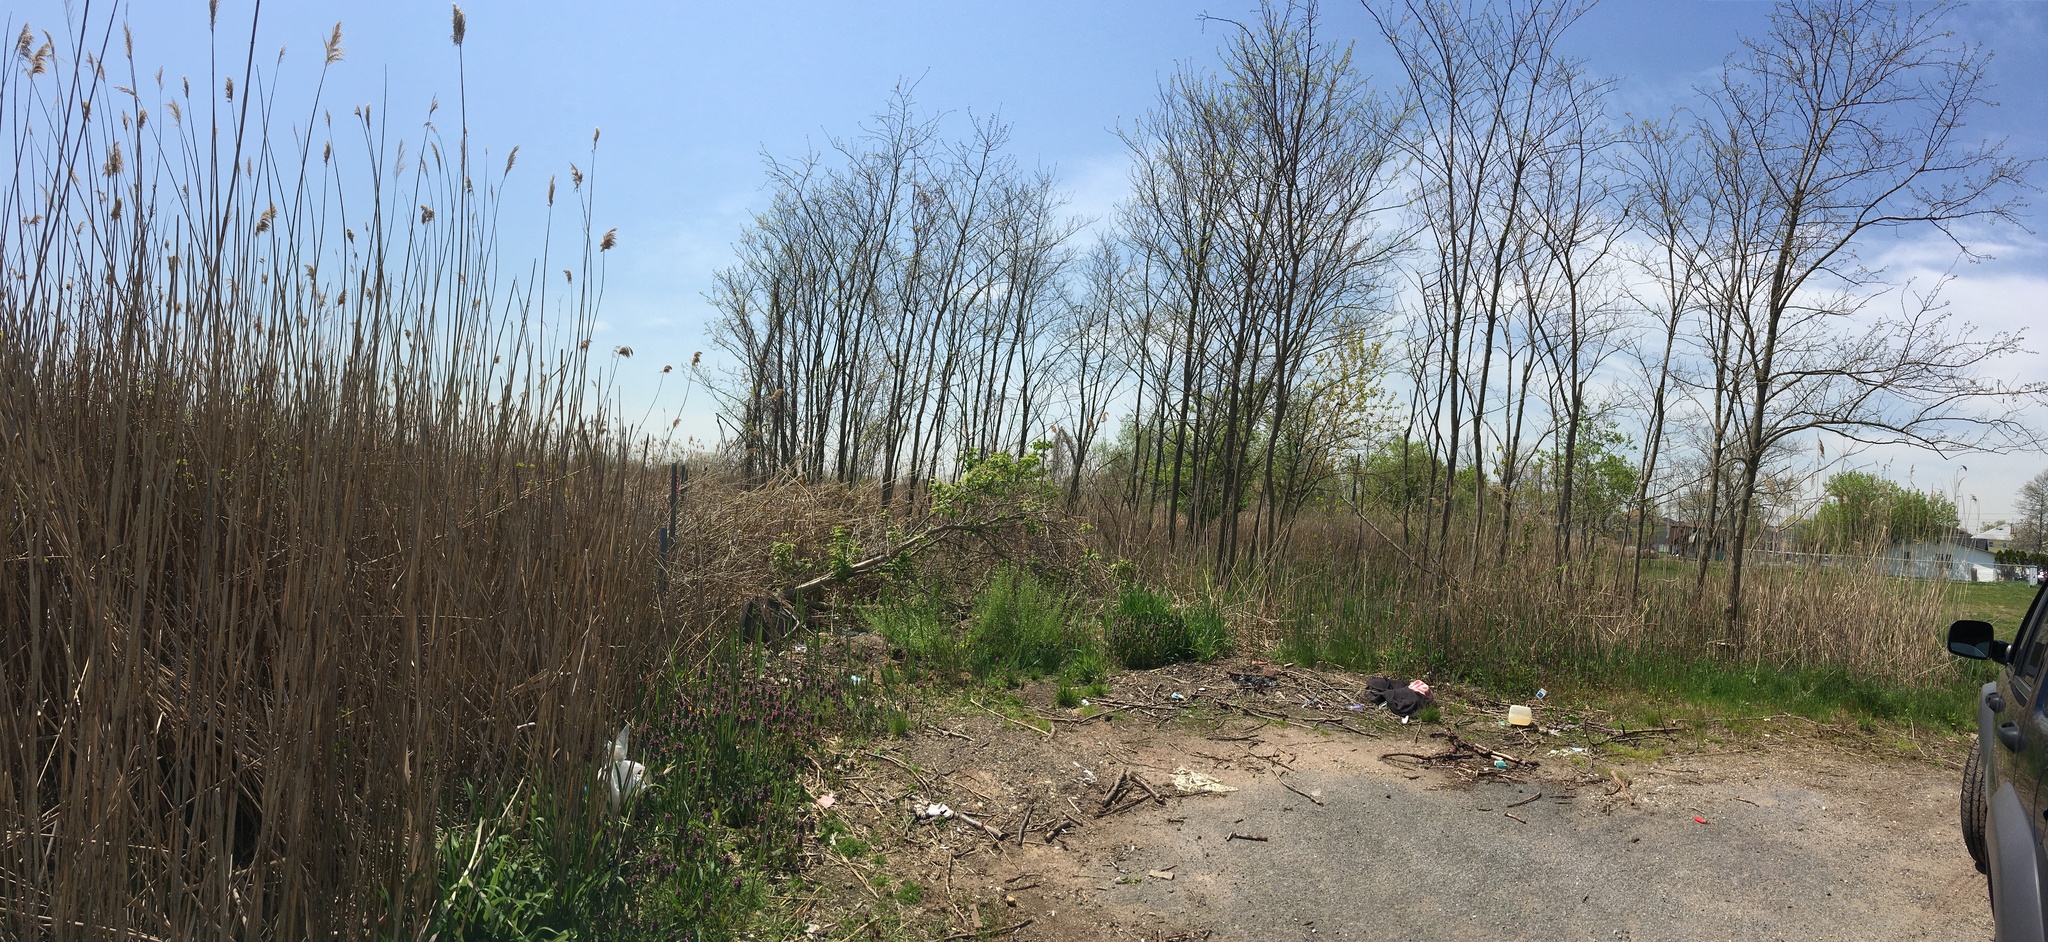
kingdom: Plantae
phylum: Tracheophyta
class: Magnoliopsida
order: Brassicales
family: Brassicaceae
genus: Mummenhoffia
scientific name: Mummenhoffia alliacea
